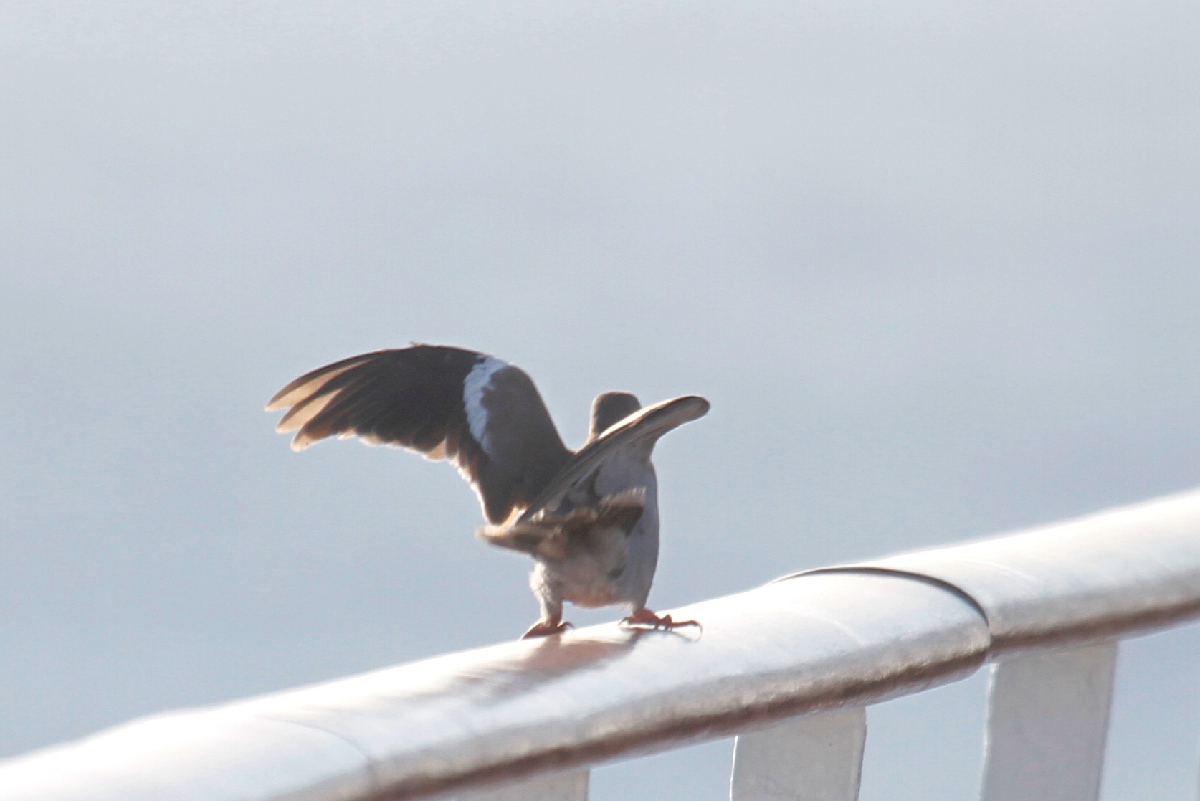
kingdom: Animalia
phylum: Chordata
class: Aves
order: Columbiformes
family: Columbidae
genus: Zenaida
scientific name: Zenaida asiatica
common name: White-winged dove
